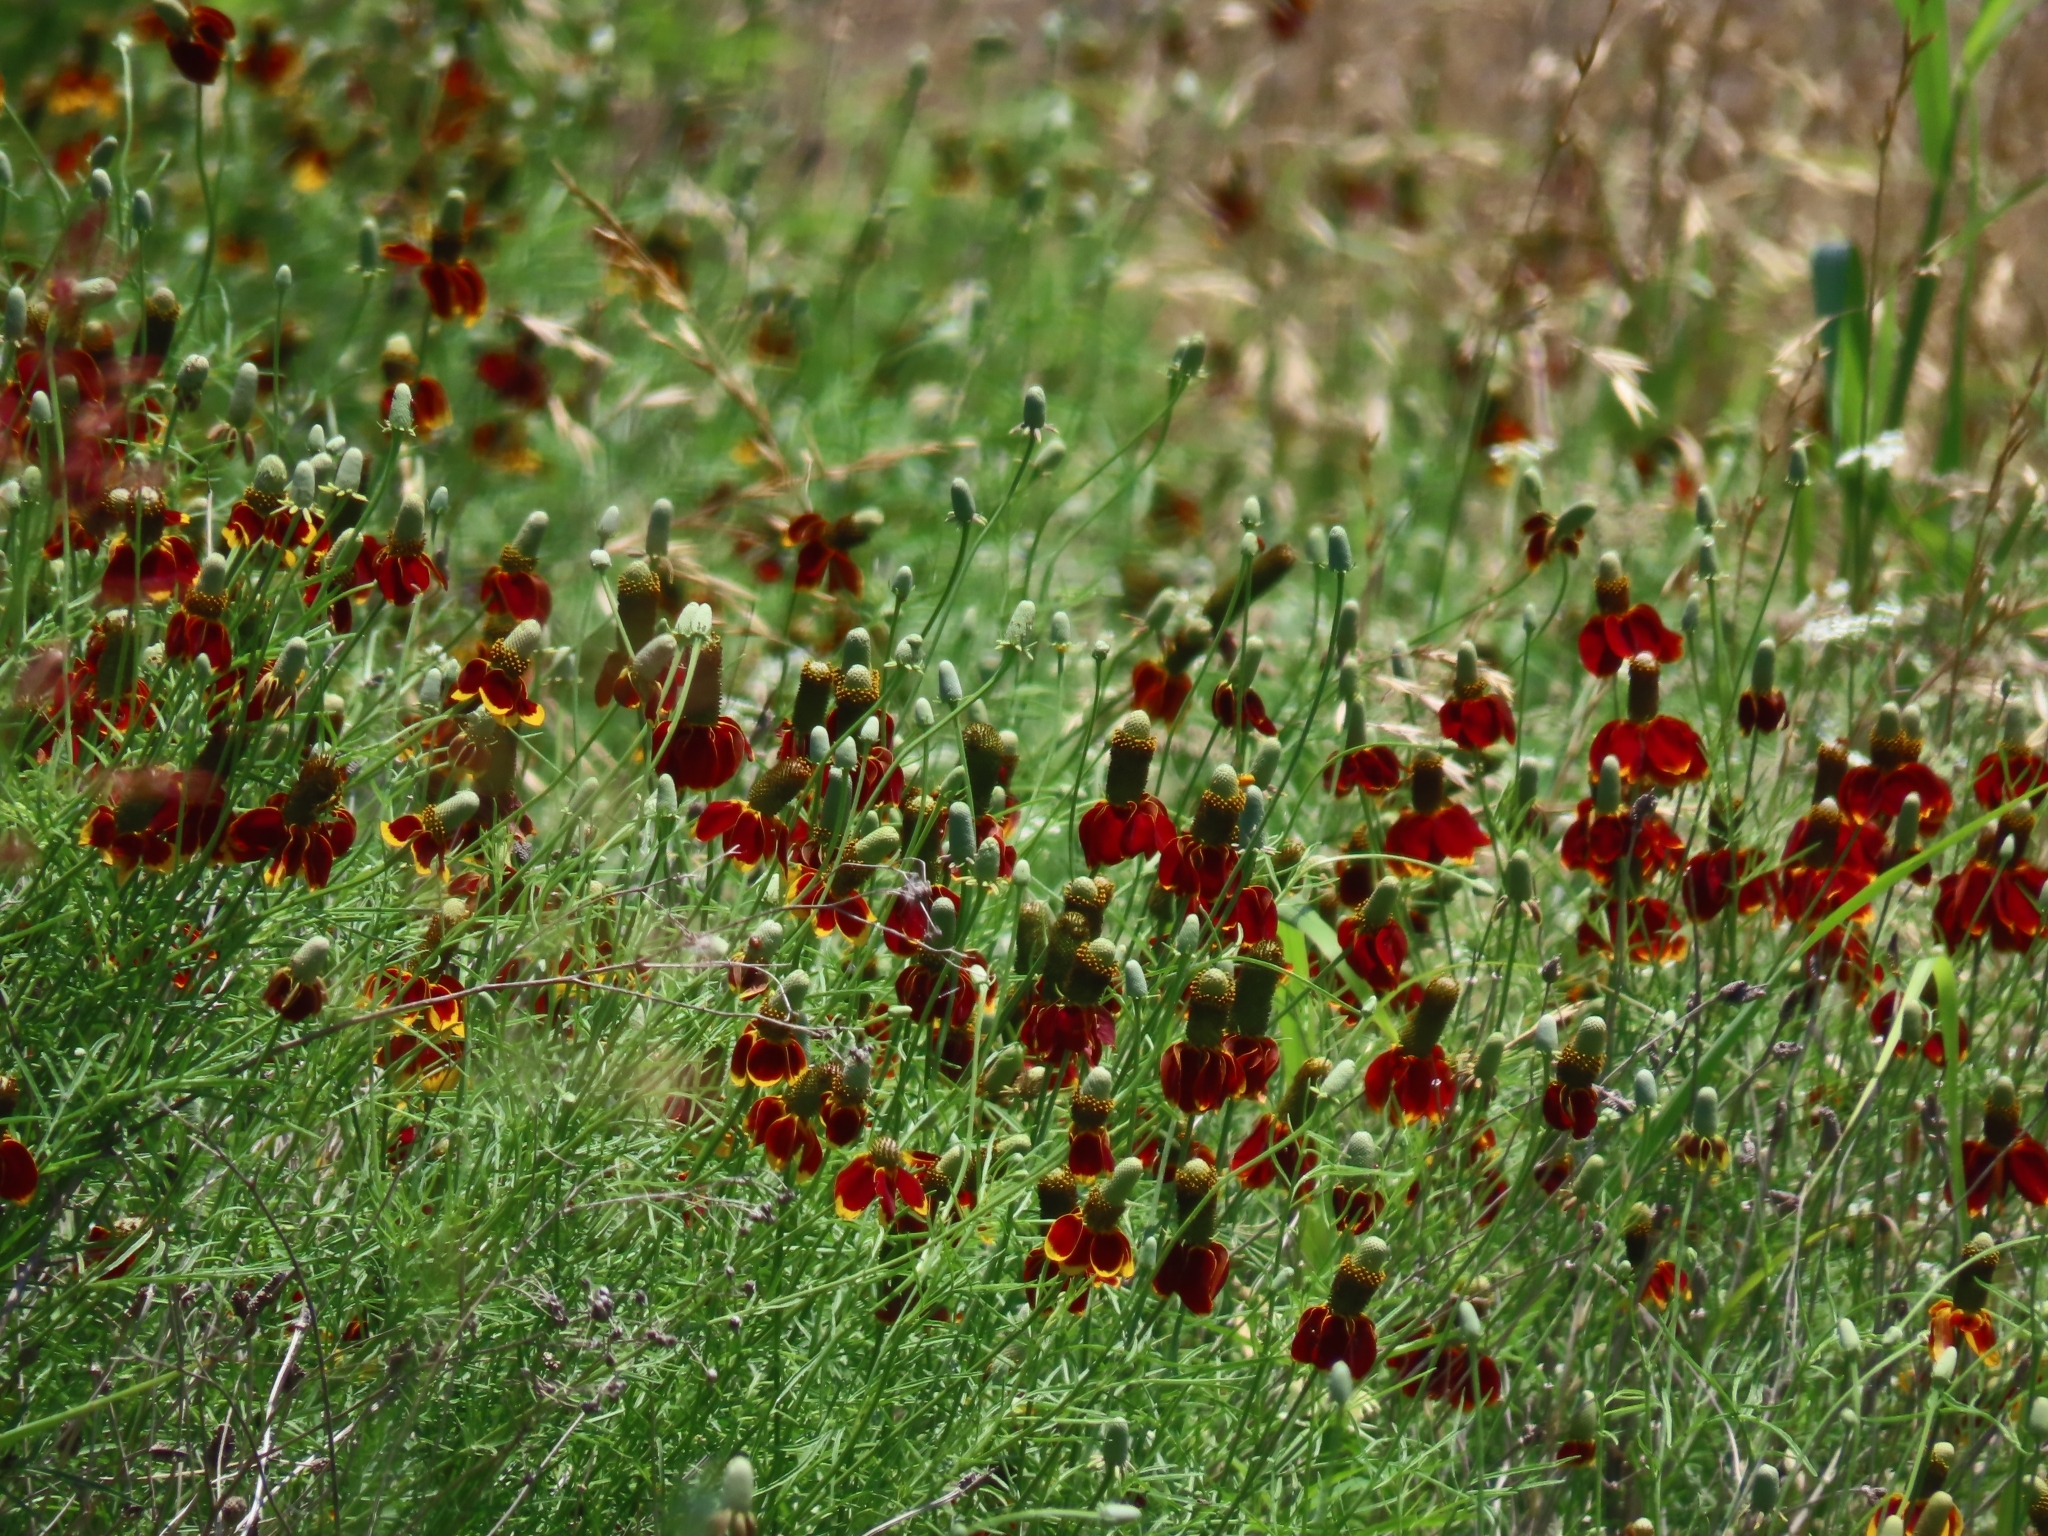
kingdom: Plantae
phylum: Tracheophyta
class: Magnoliopsida
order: Asterales
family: Asteraceae
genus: Ratibida
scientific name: Ratibida columnifera
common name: Prairie coneflower
